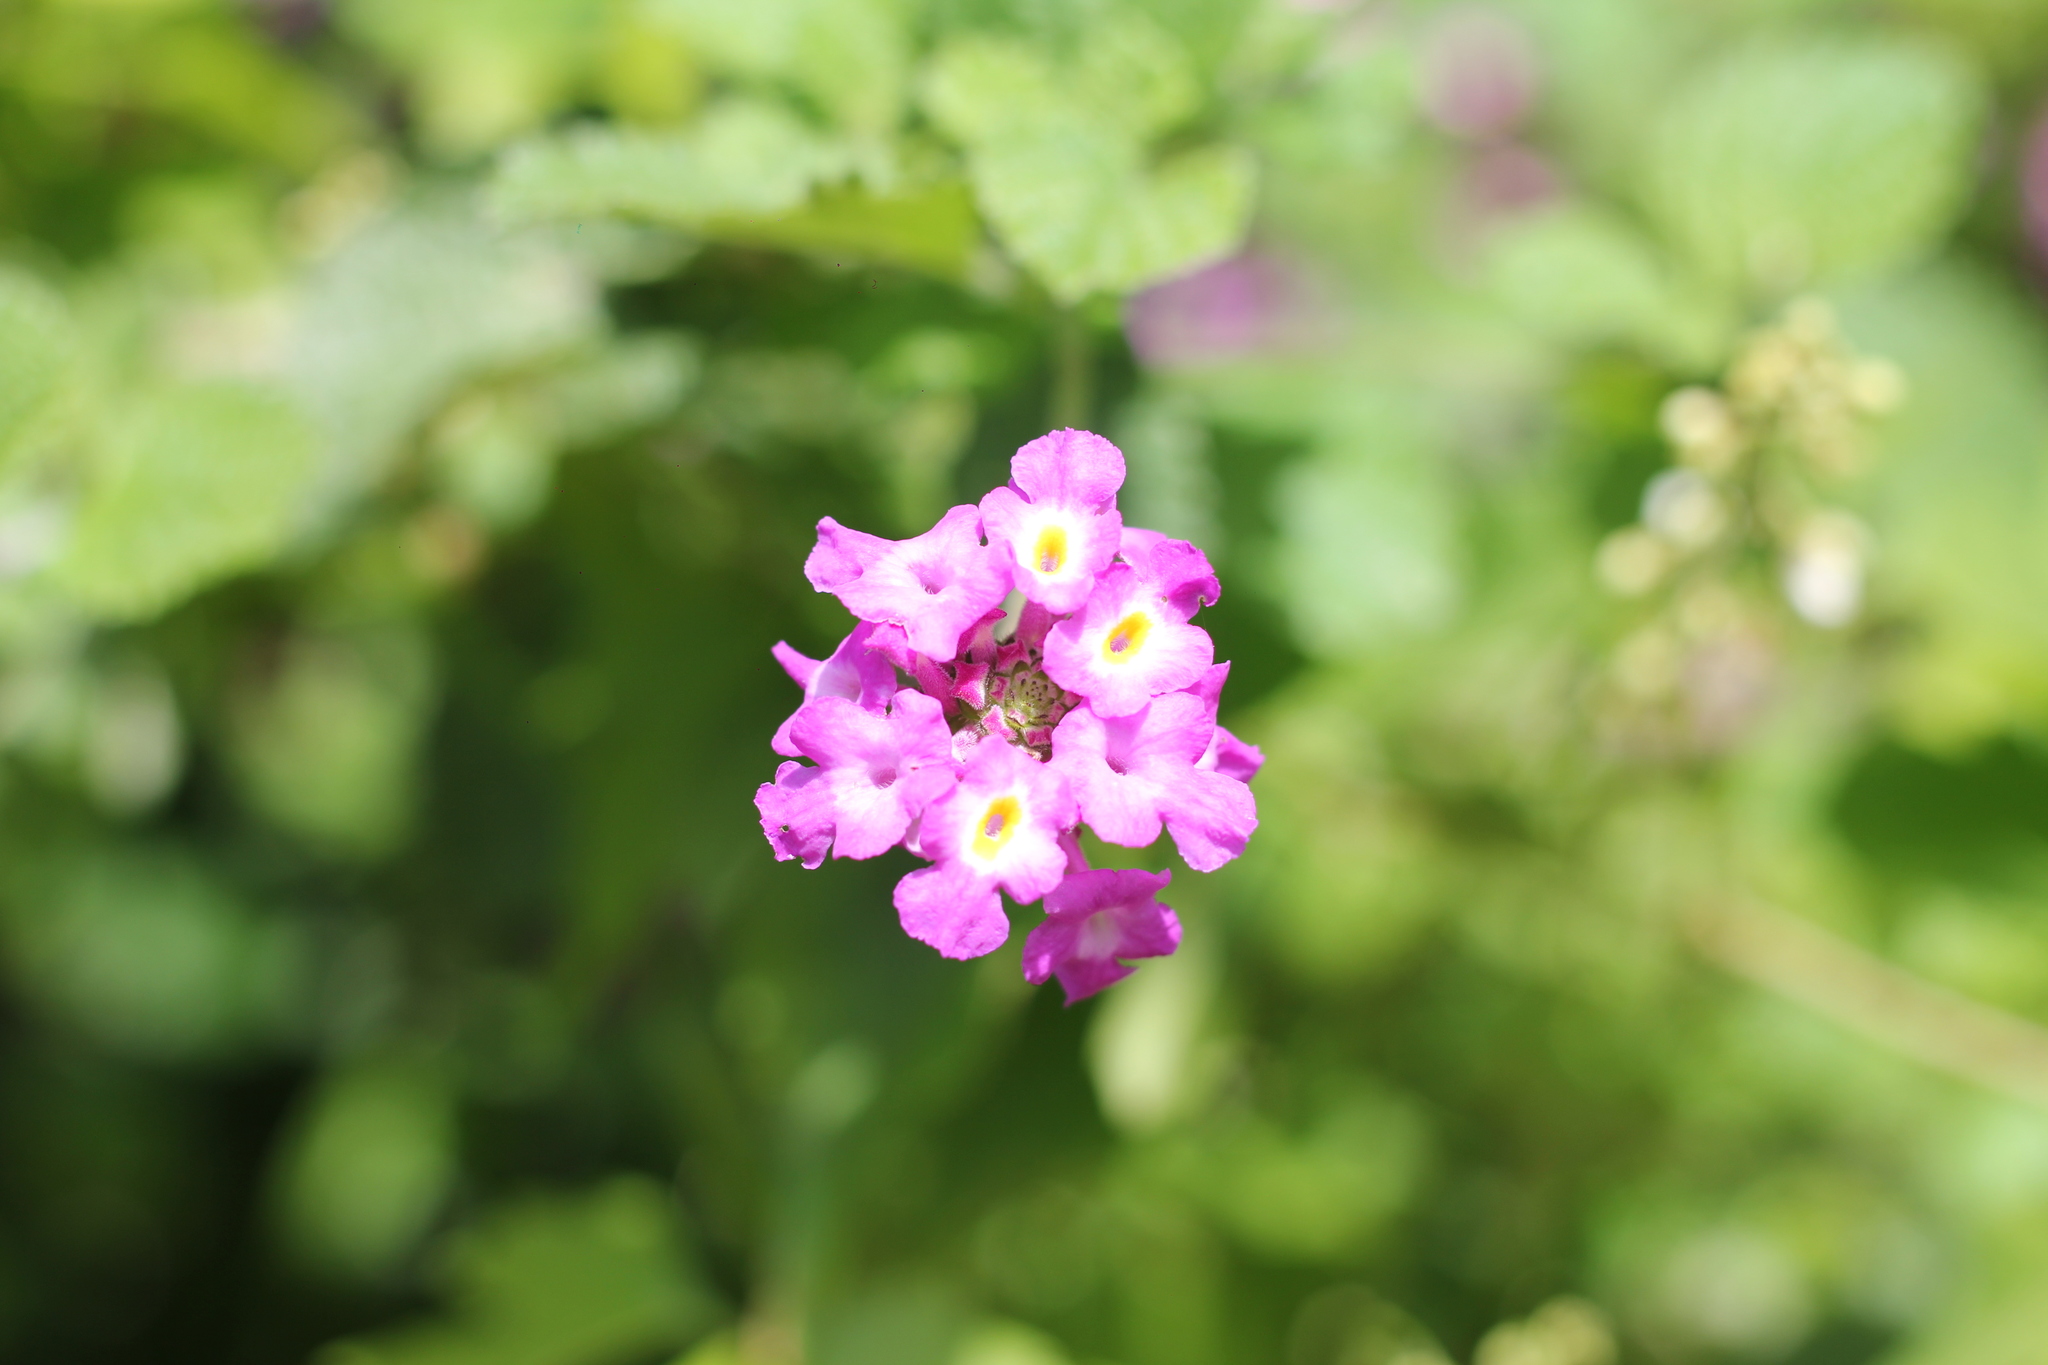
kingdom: Plantae
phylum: Tracheophyta
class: Magnoliopsida
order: Lamiales
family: Verbenaceae
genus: Lantana
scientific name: Lantana megapotamica
